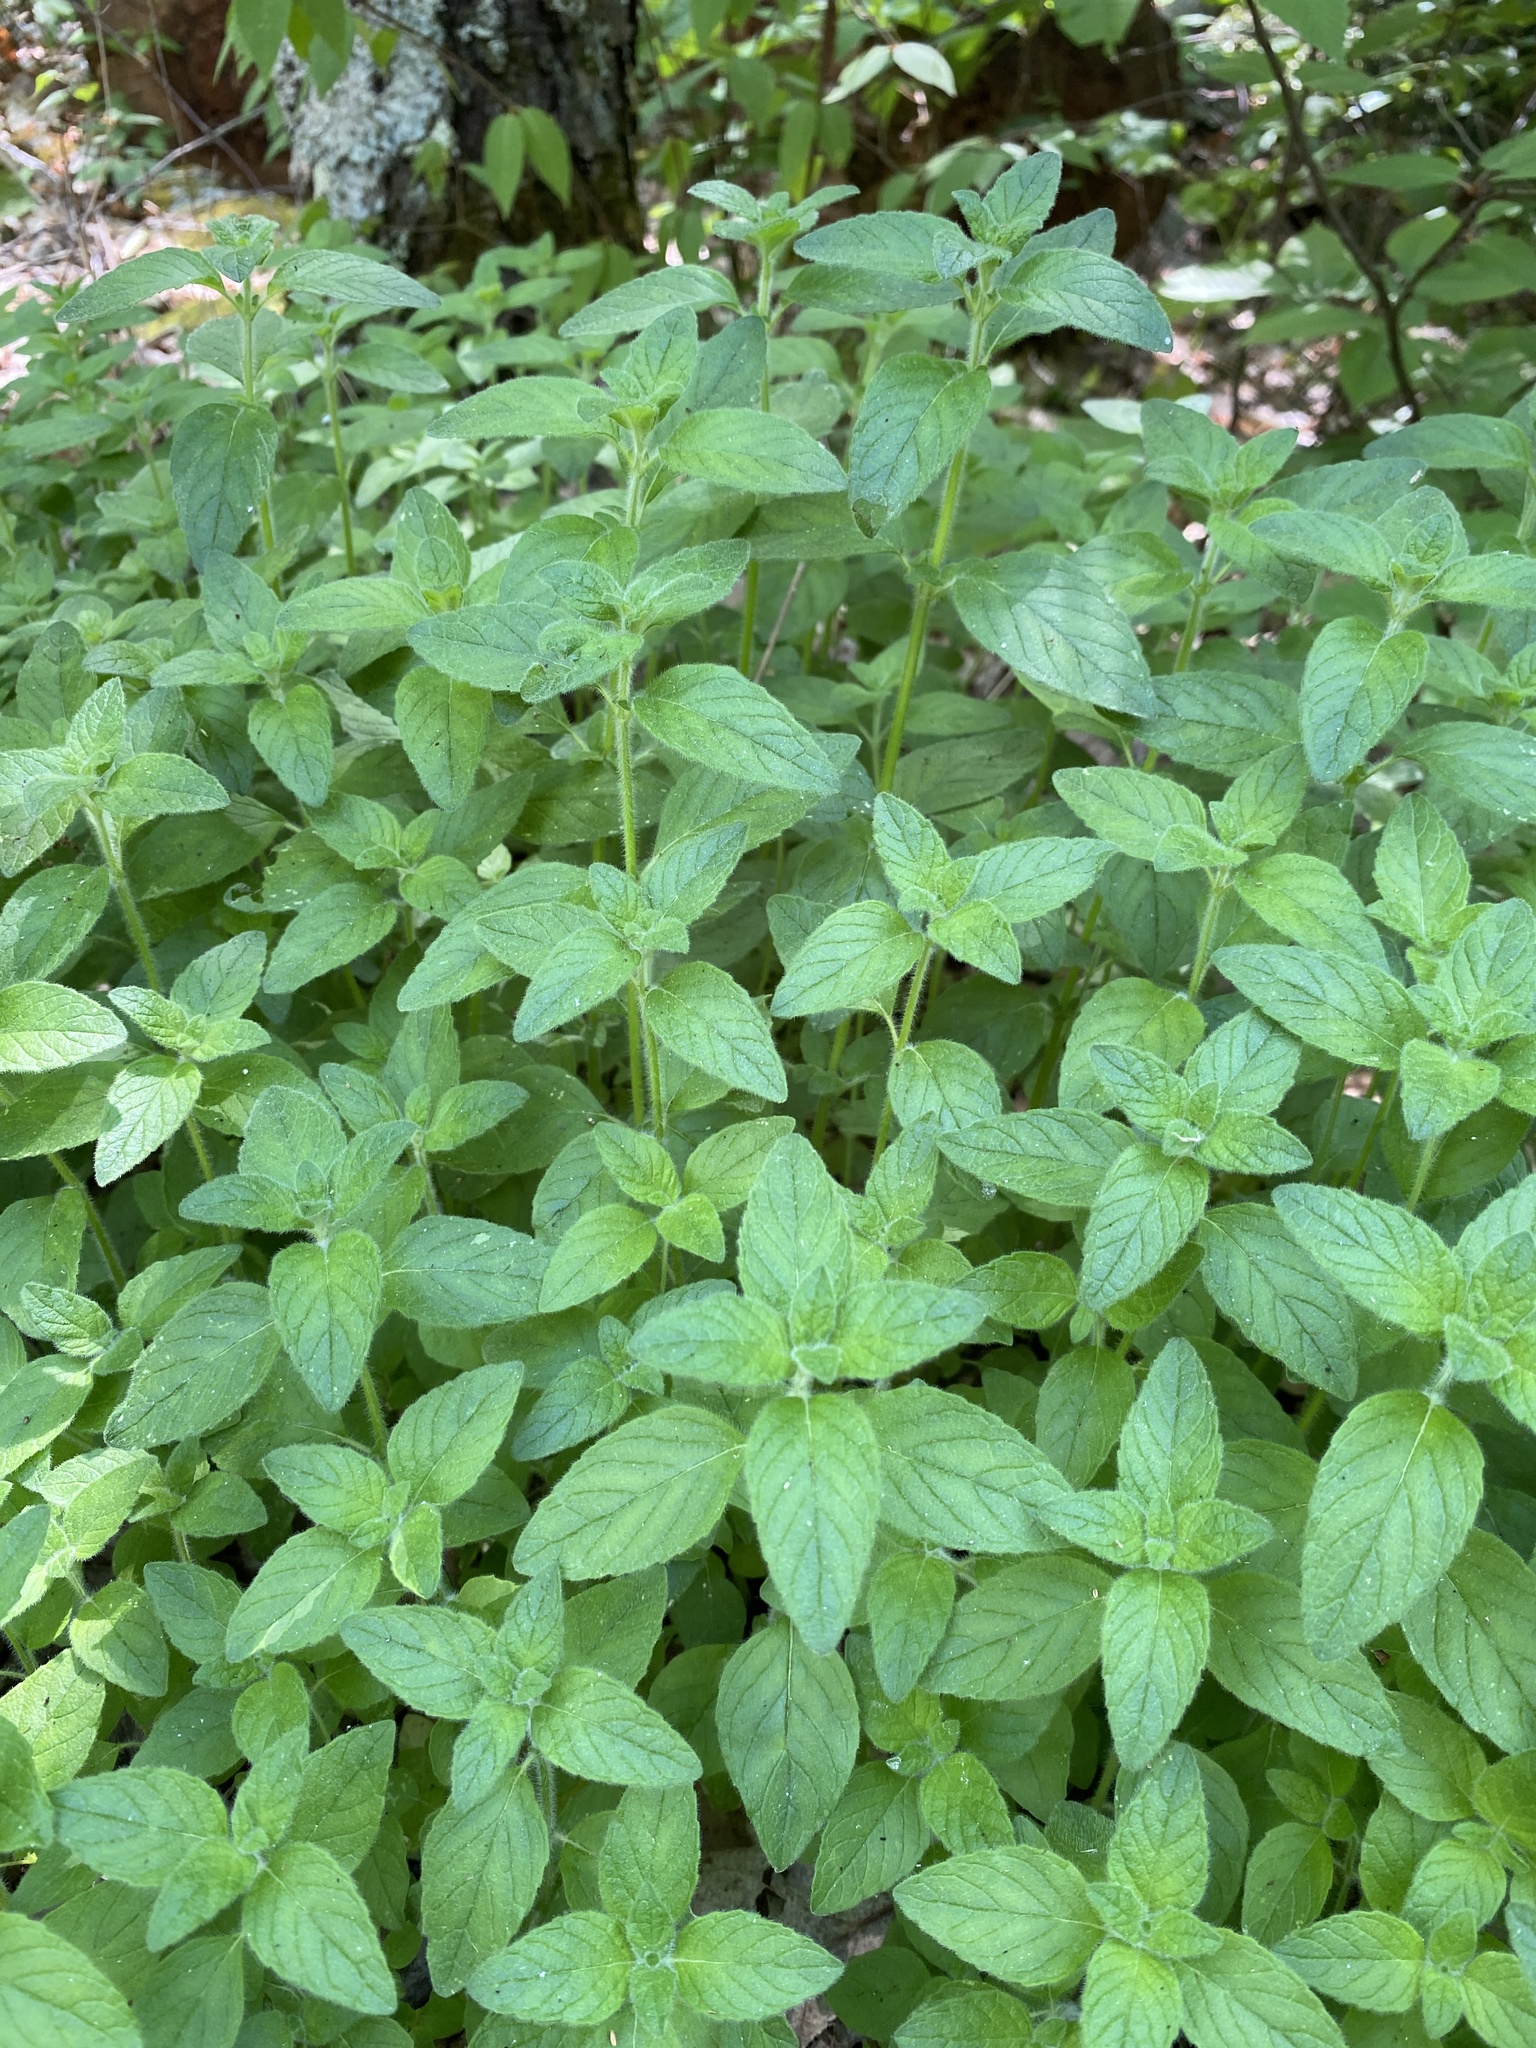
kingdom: Plantae
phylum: Tracheophyta
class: Magnoliopsida
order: Lamiales
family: Lamiaceae
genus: Clinopodium
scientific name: Clinopodium vulgare
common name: Wild basil
